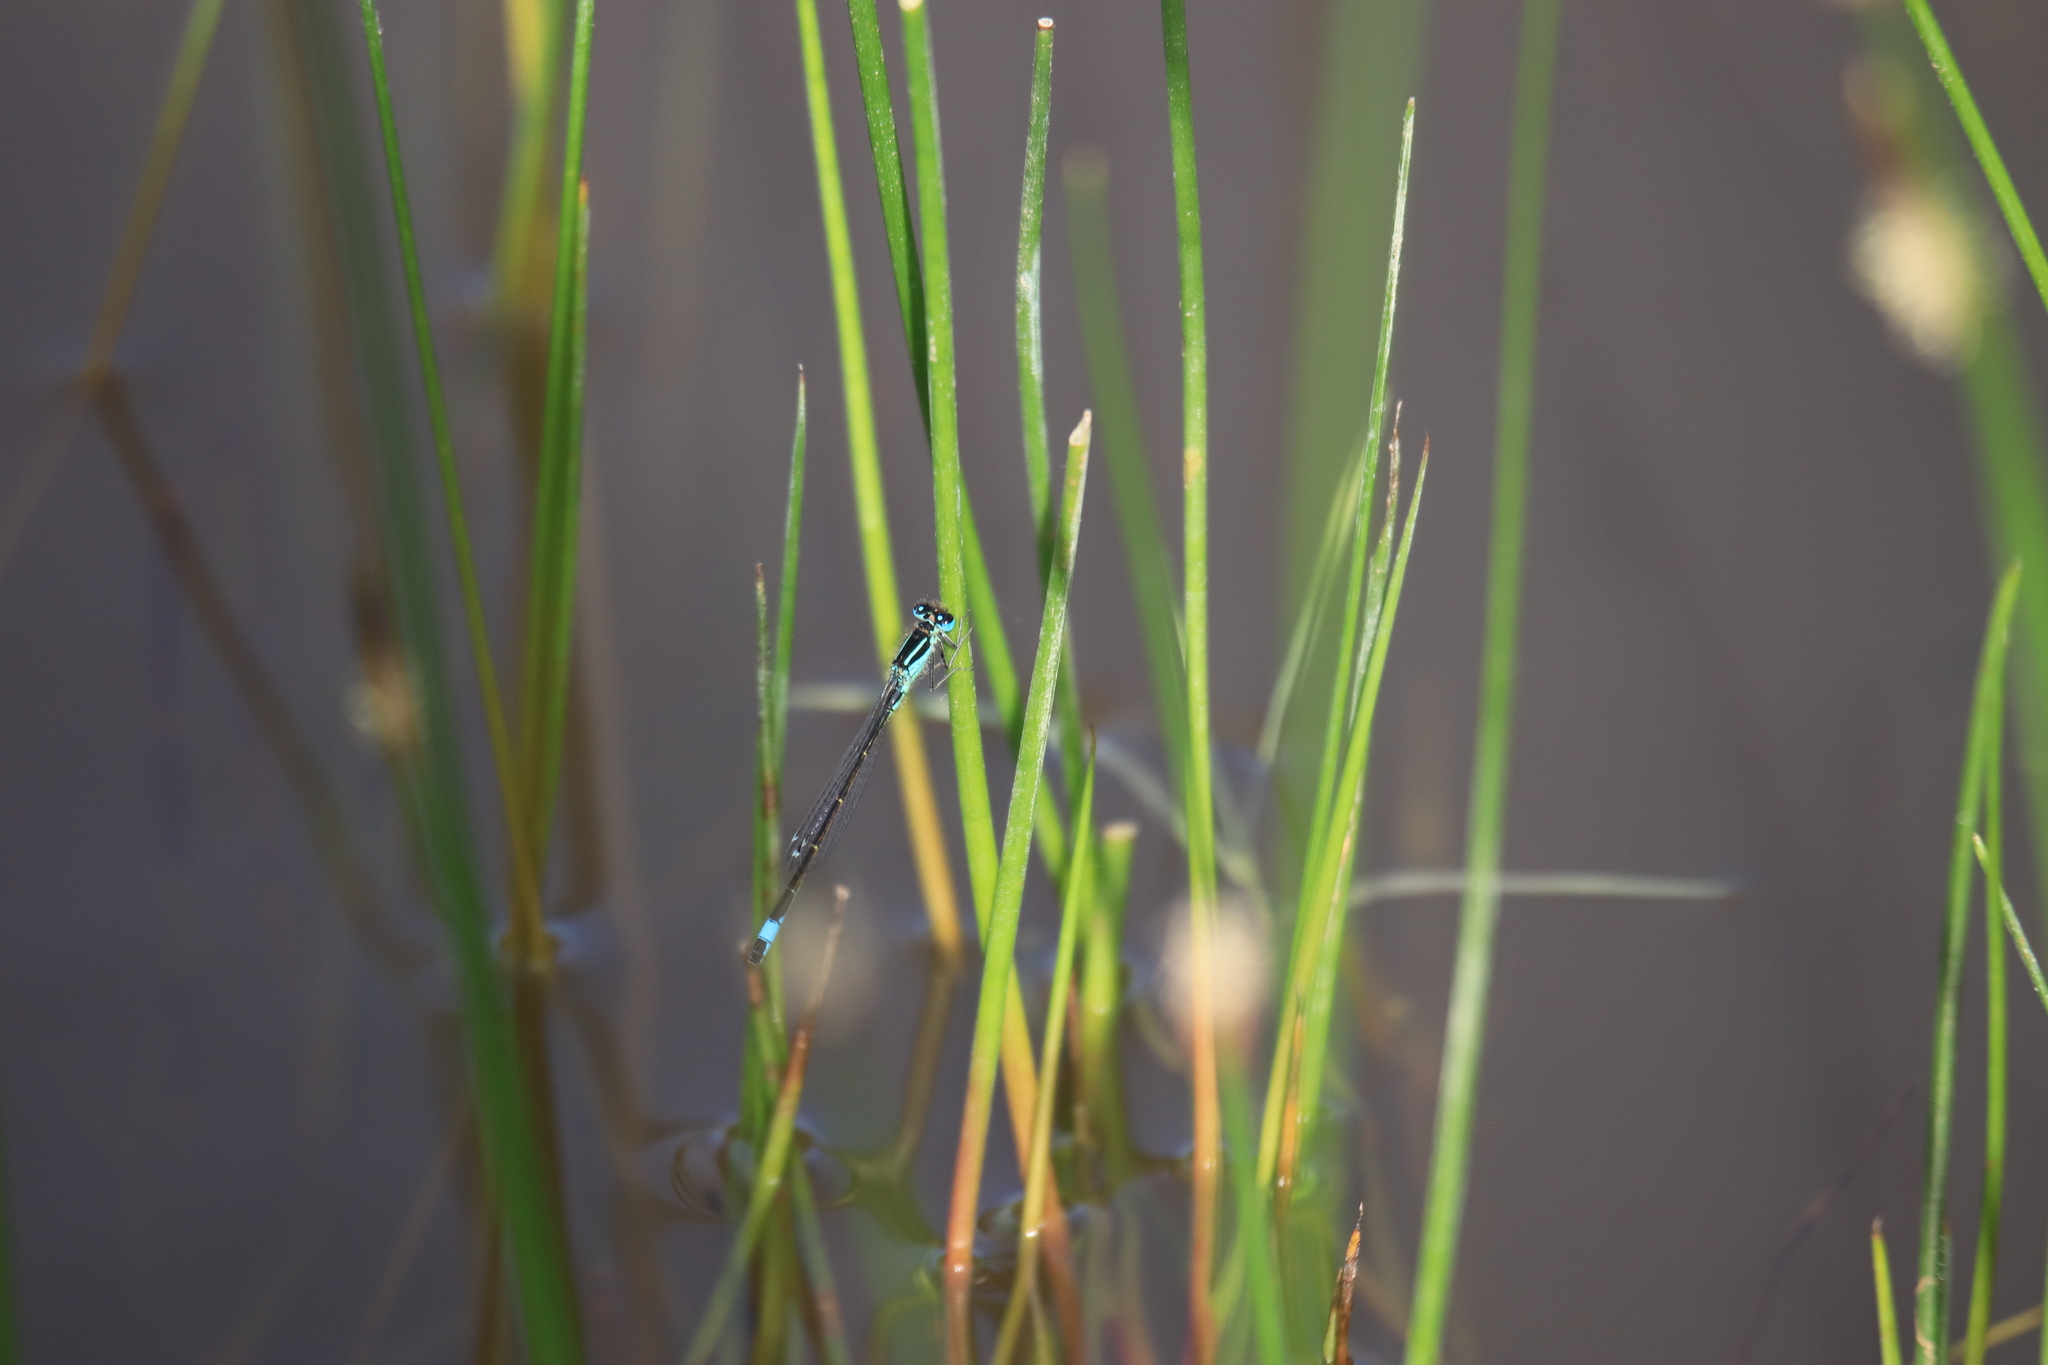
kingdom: Animalia
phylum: Arthropoda
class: Insecta
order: Odonata
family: Coenagrionidae
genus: Ischnura
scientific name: Ischnura elegans
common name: Blue-tailed damselfly
